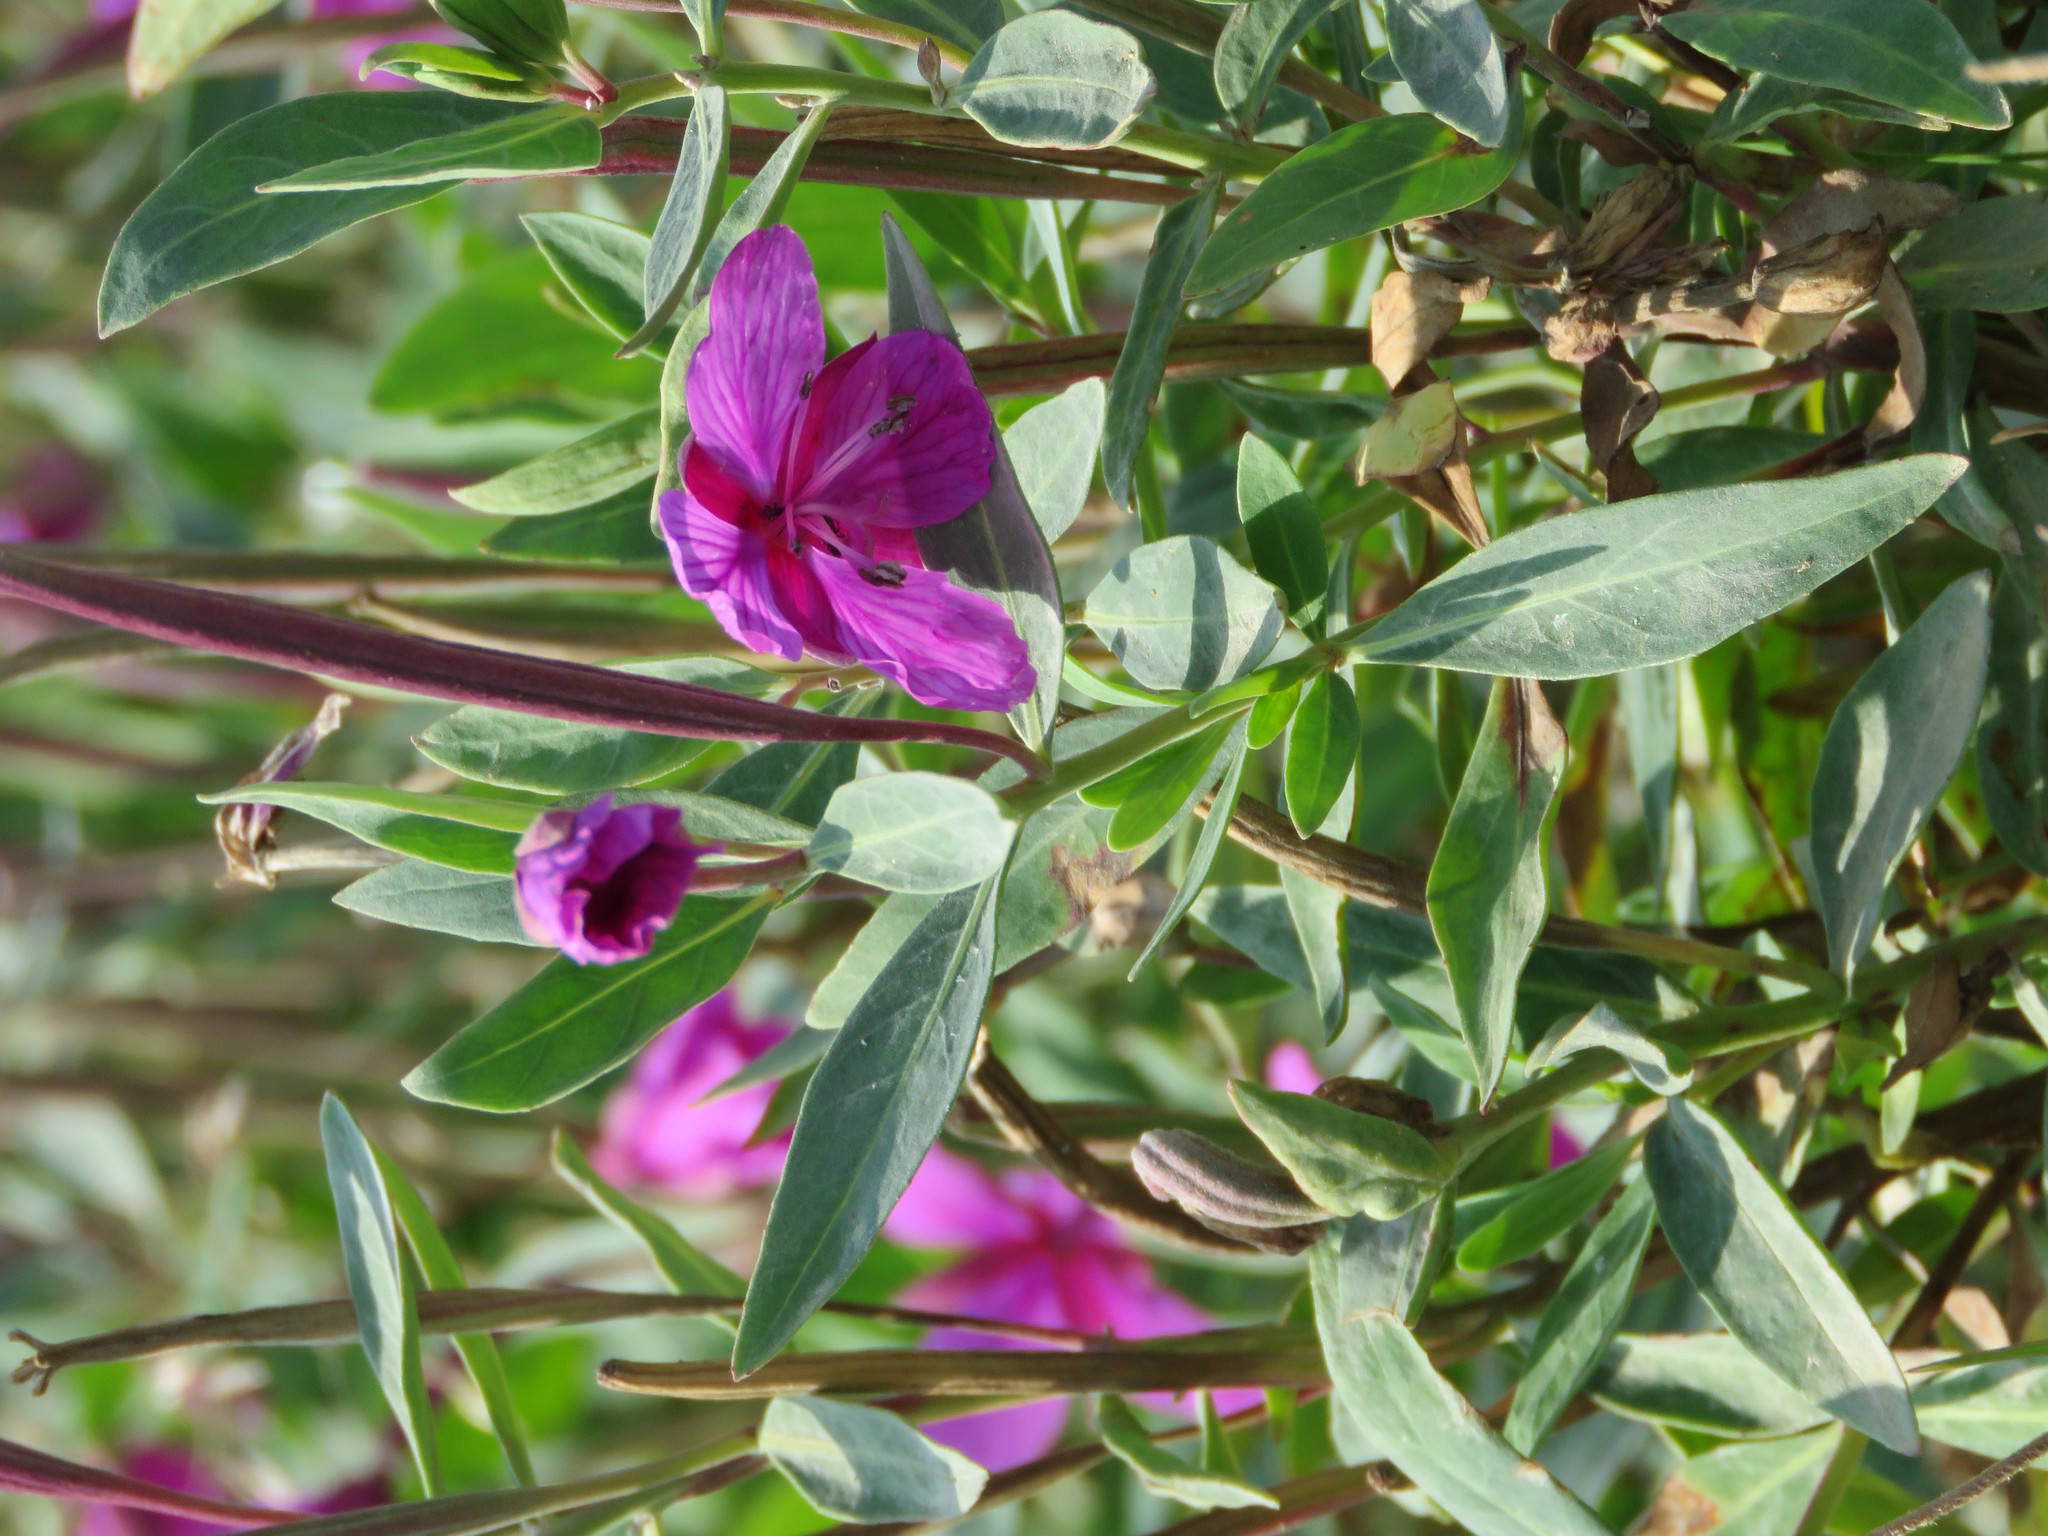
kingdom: Plantae
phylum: Tracheophyta
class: Magnoliopsida
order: Myrtales
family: Onagraceae
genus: Chamaenerion
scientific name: Chamaenerion latifolium
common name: Dwarf fireweed
